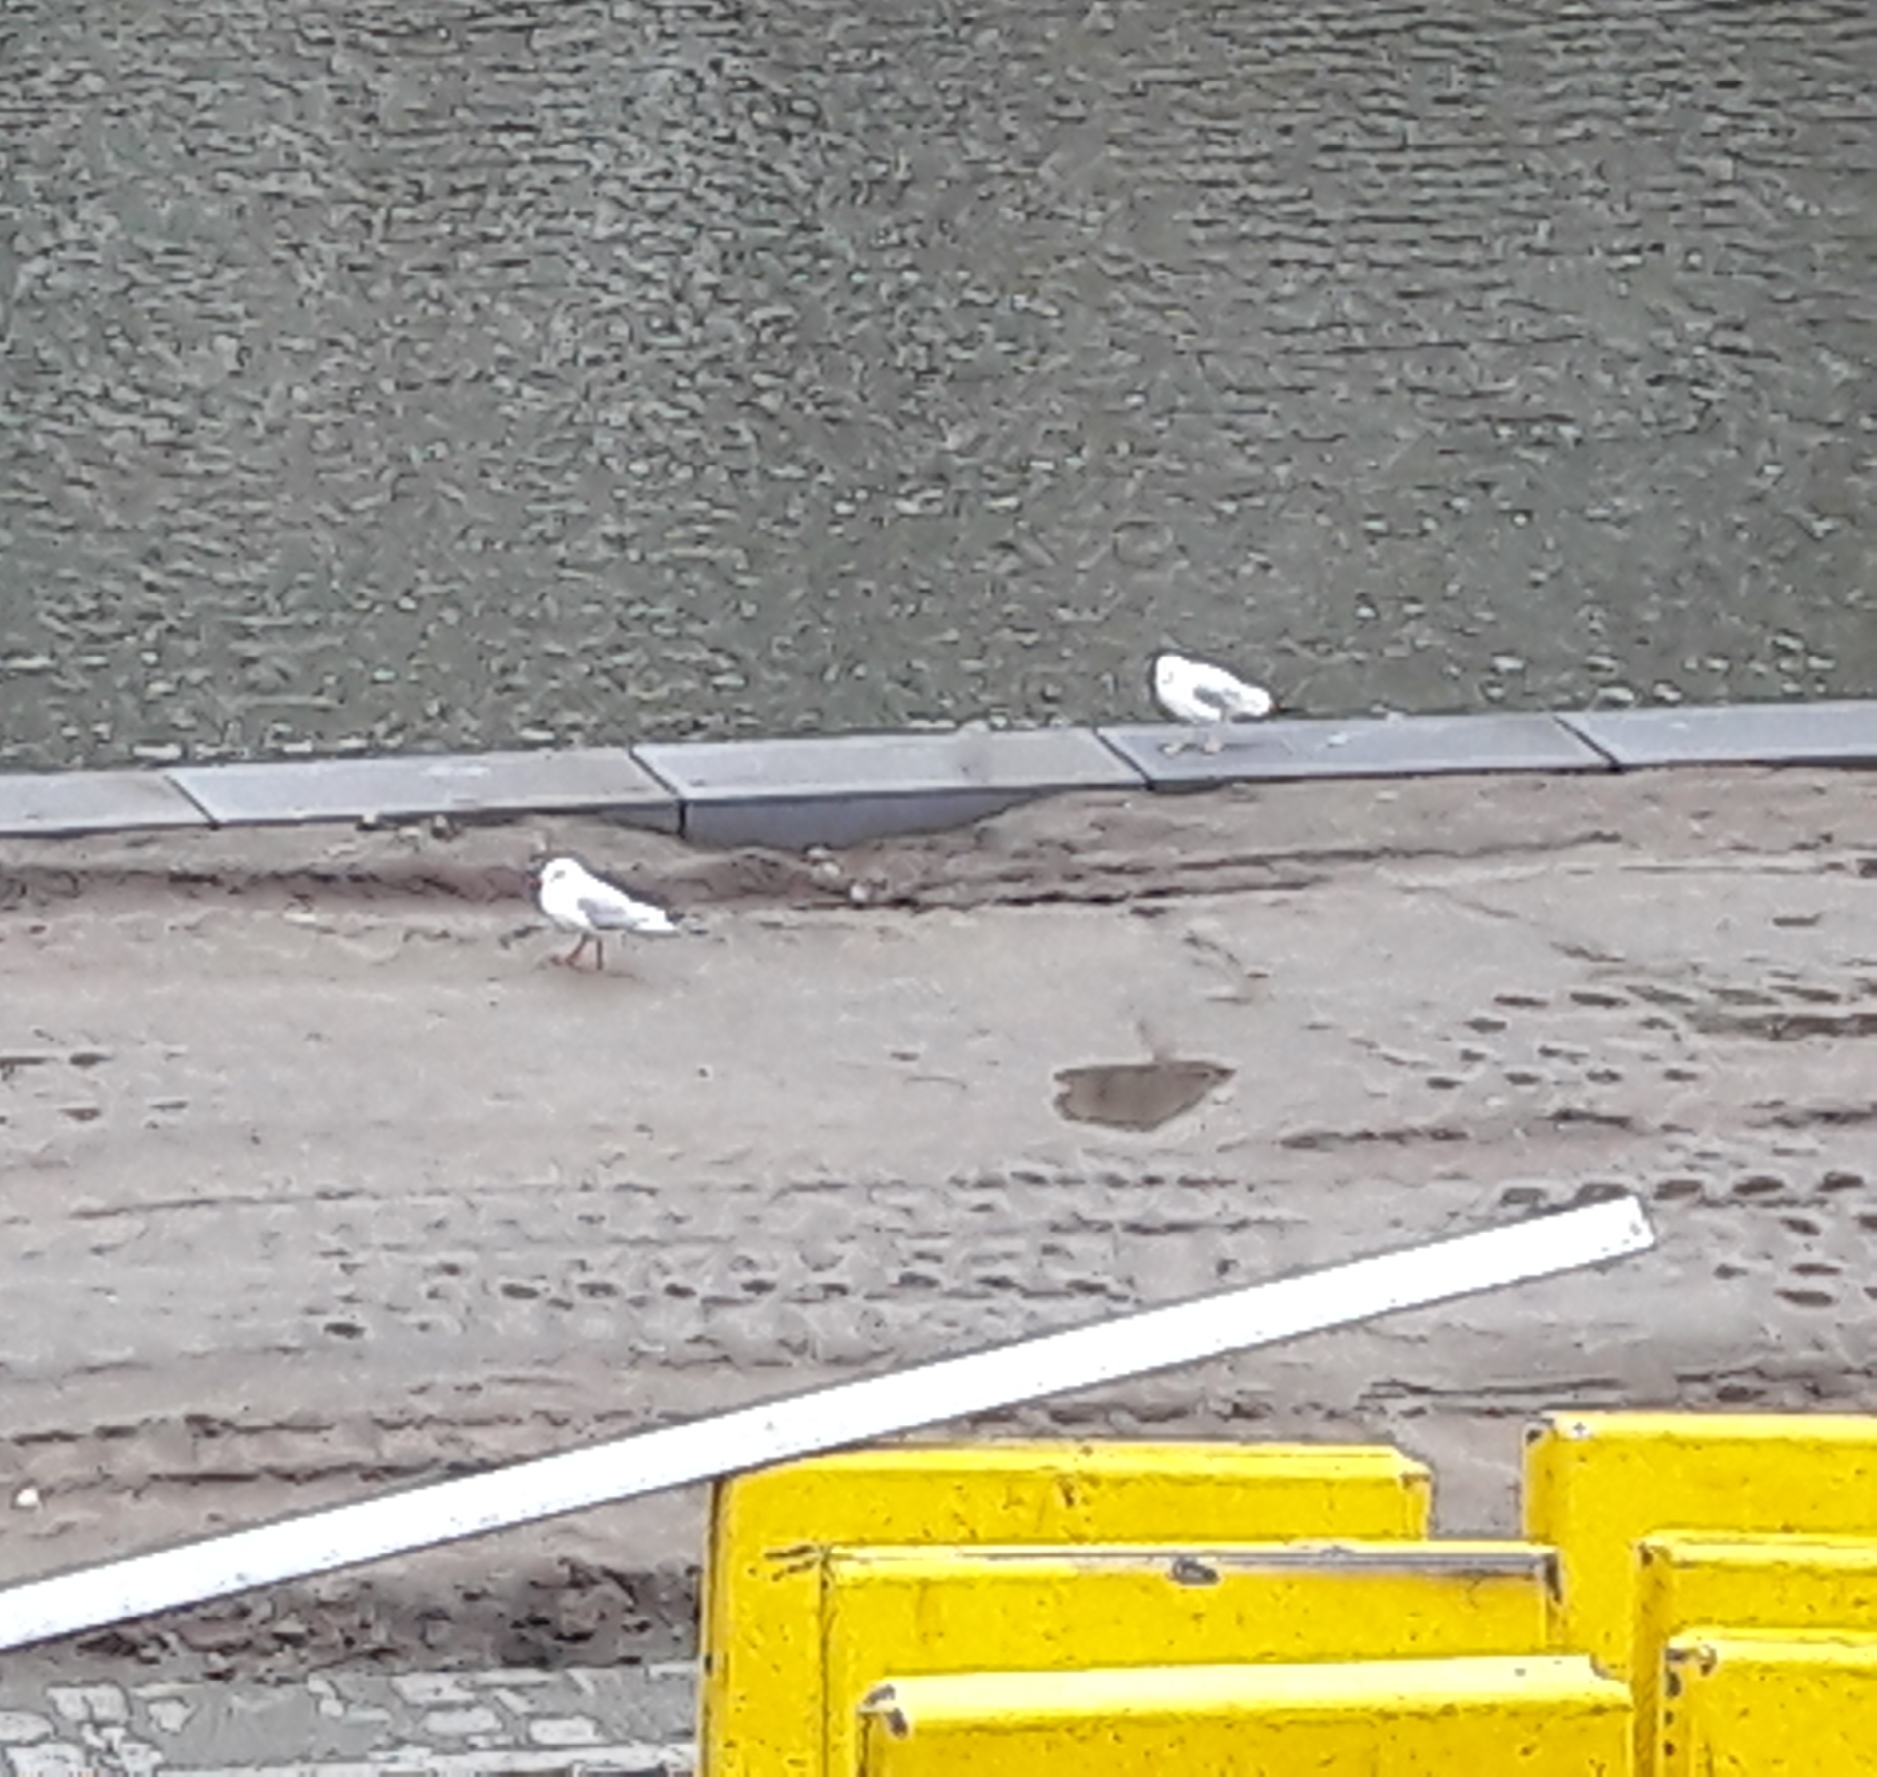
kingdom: Animalia
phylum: Chordata
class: Aves
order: Charadriiformes
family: Laridae
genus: Chroicocephalus
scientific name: Chroicocephalus ridibundus
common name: Black-headed gull
